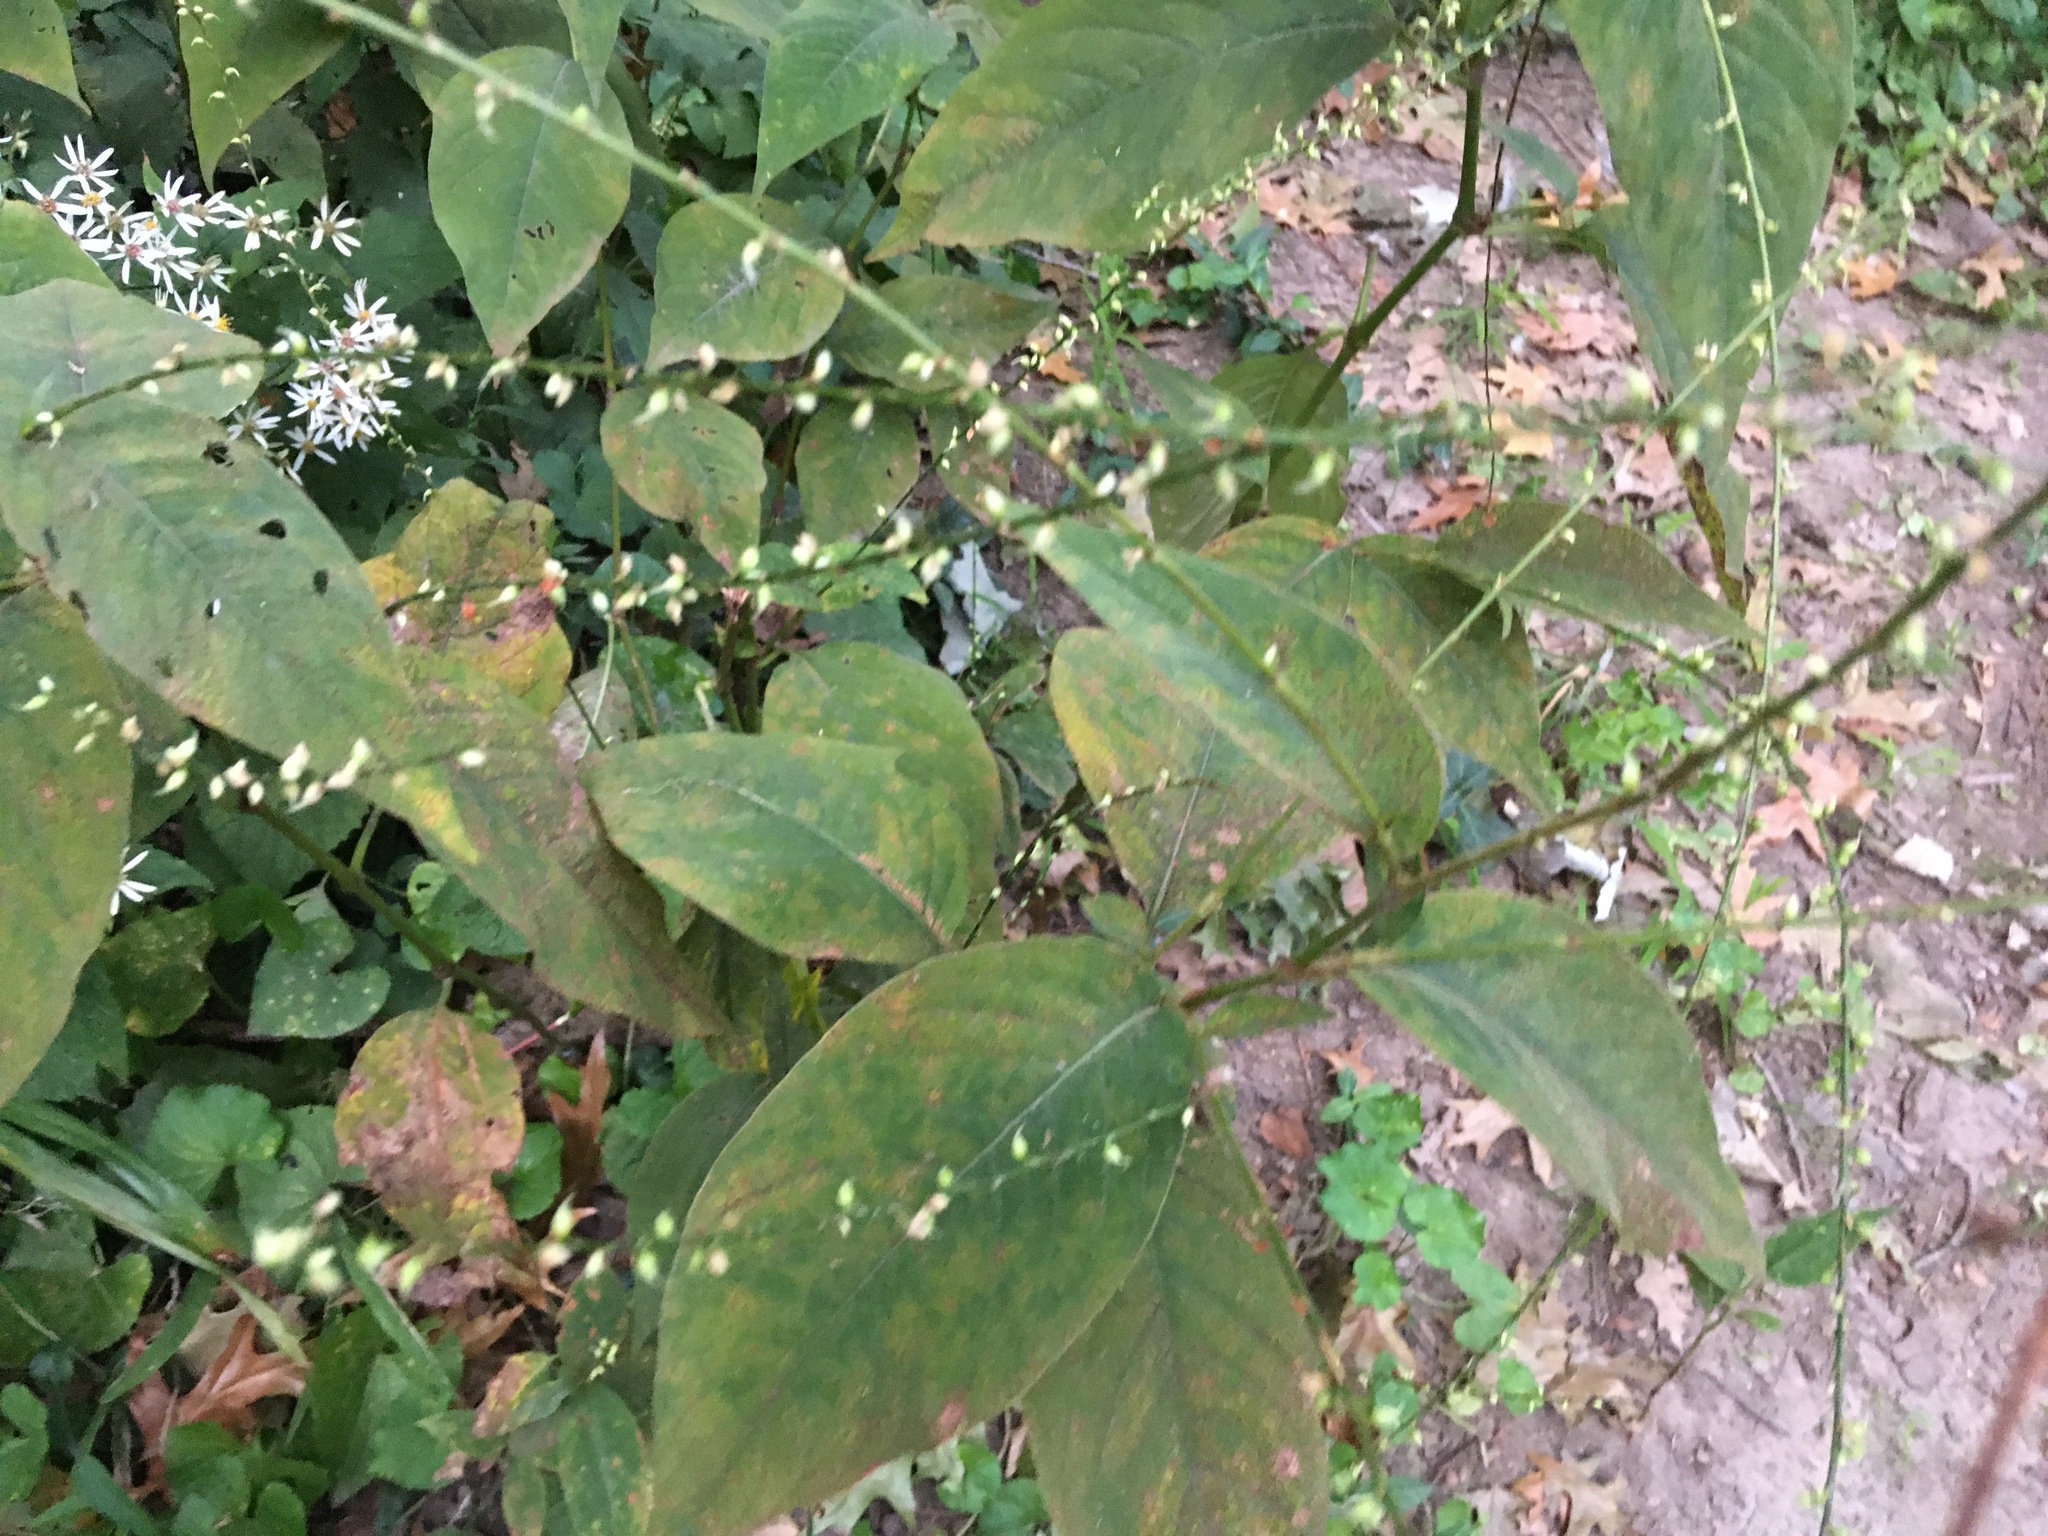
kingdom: Plantae
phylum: Tracheophyta
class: Magnoliopsida
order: Caryophyllales
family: Polygonaceae
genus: Persicaria
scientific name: Persicaria virginiana
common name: Jumpseed
